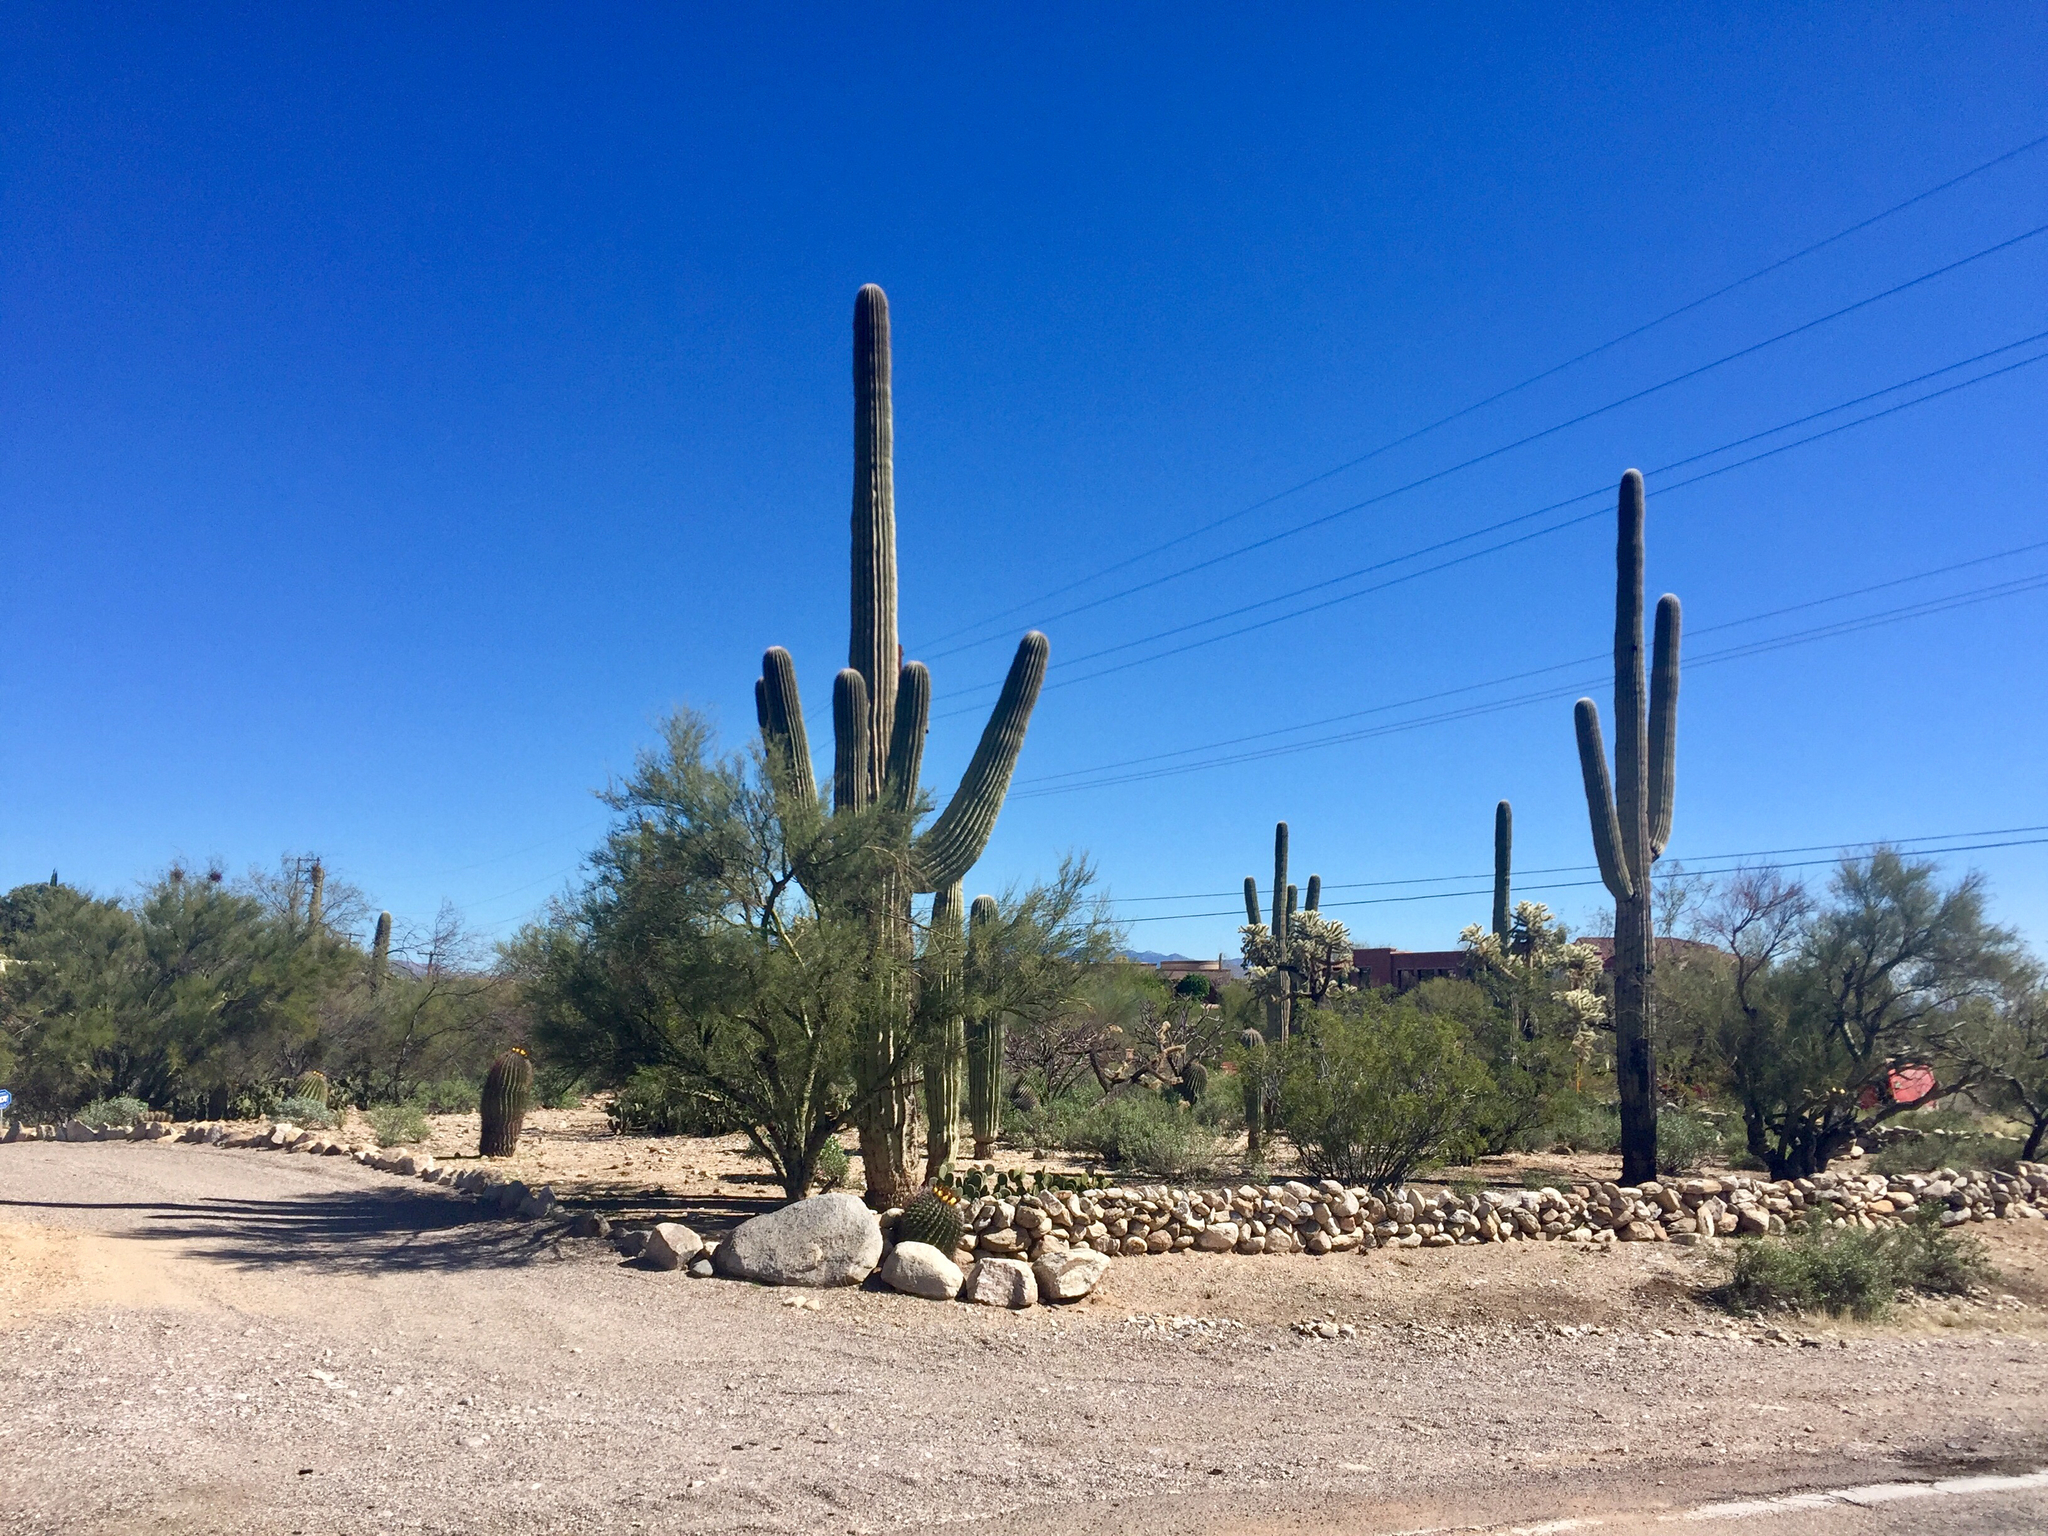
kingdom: Plantae
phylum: Tracheophyta
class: Magnoliopsida
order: Caryophyllales
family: Cactaceae
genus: Carnegiea
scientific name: Carnegiea gigantea
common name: Saguaro
